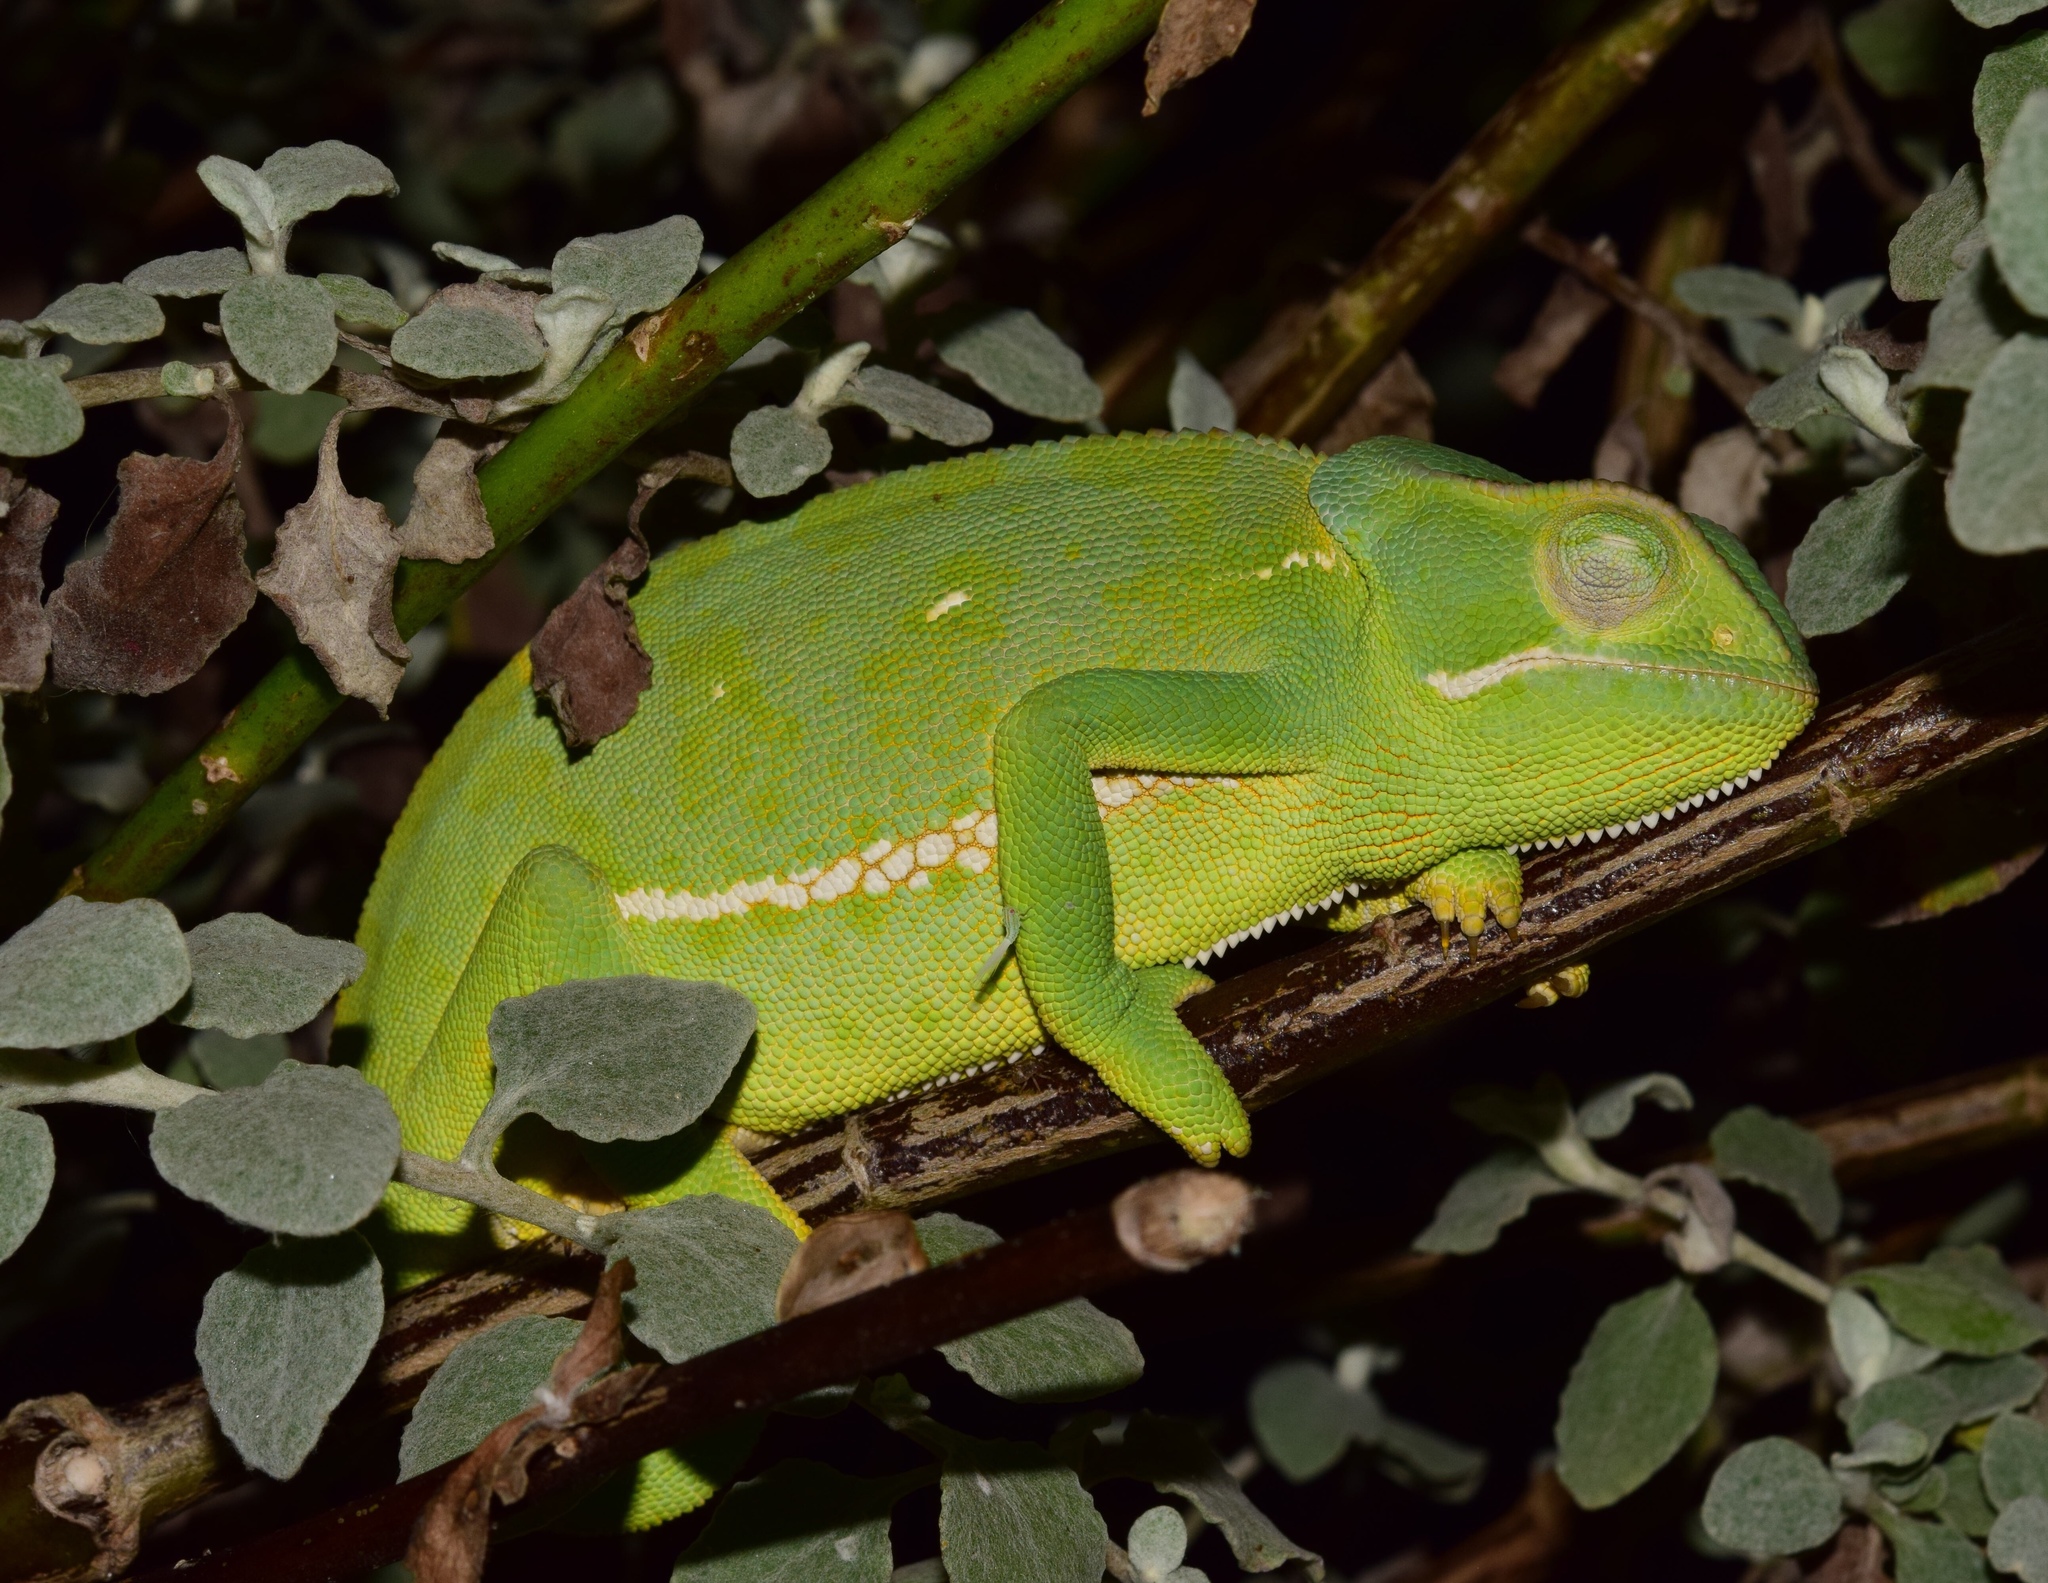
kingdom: Animalia
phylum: Chordata
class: Squamata
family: Chamaeleonidae
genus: Chamaeleo
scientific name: Chamaeleo dilepis
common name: Flapneck chameleon
